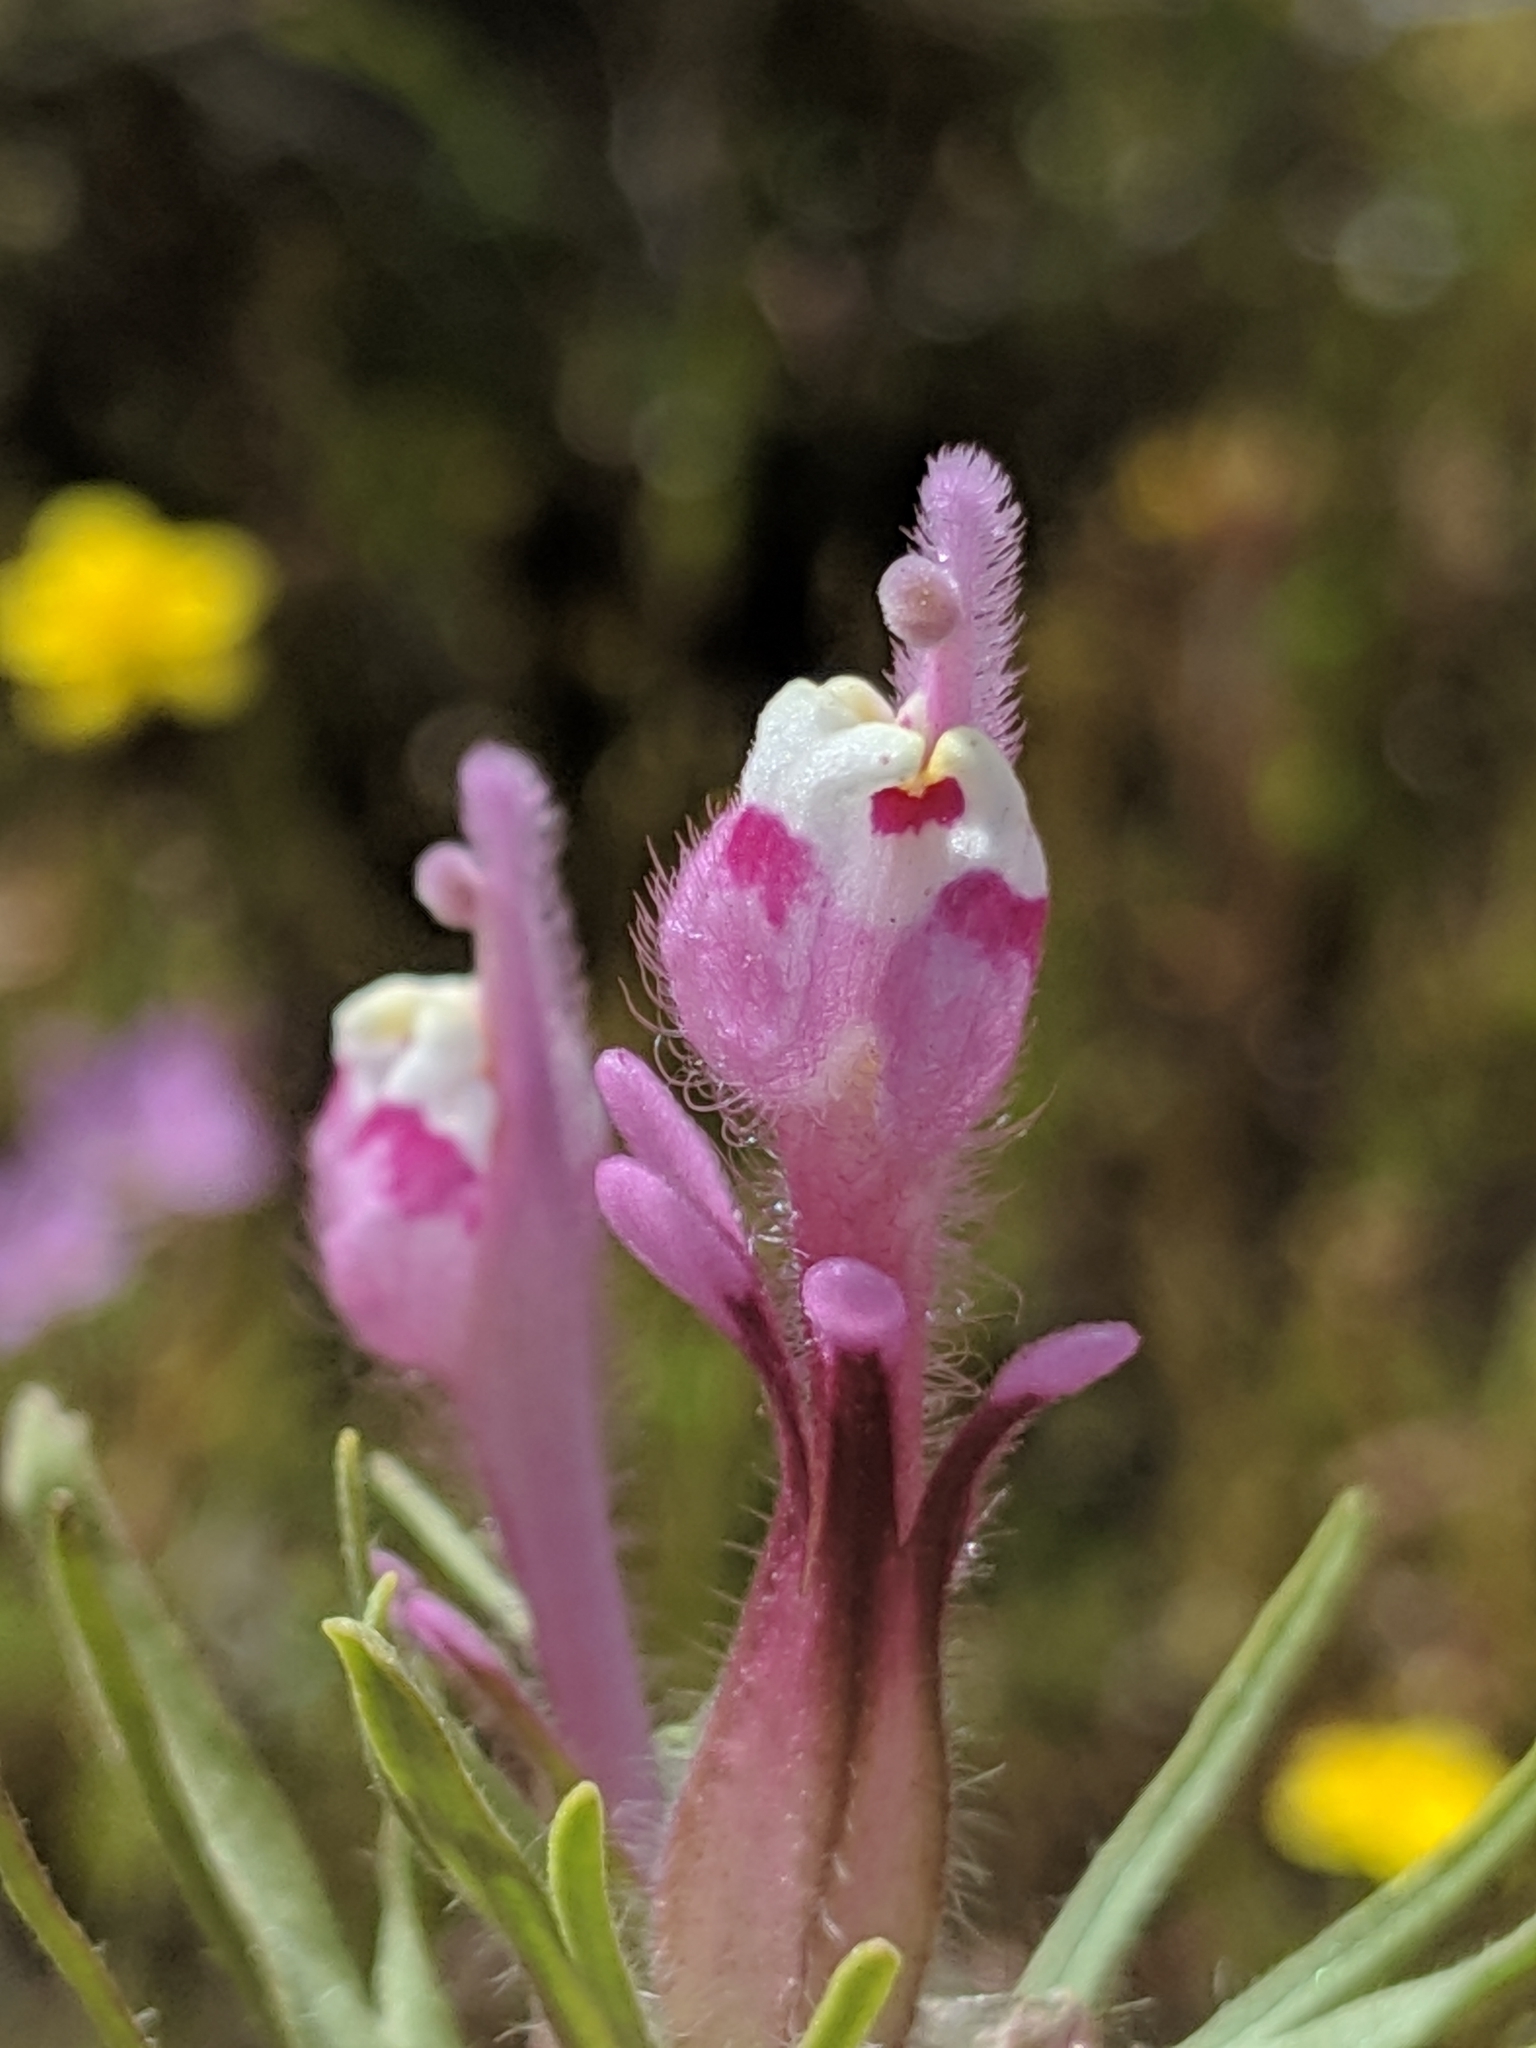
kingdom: Plantae
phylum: Tracheophyta
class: Magnoliopsida
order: Lamiales
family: Orobanchaceae
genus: Castilleja
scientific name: Castilleja exserta
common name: Purple owl-clover
